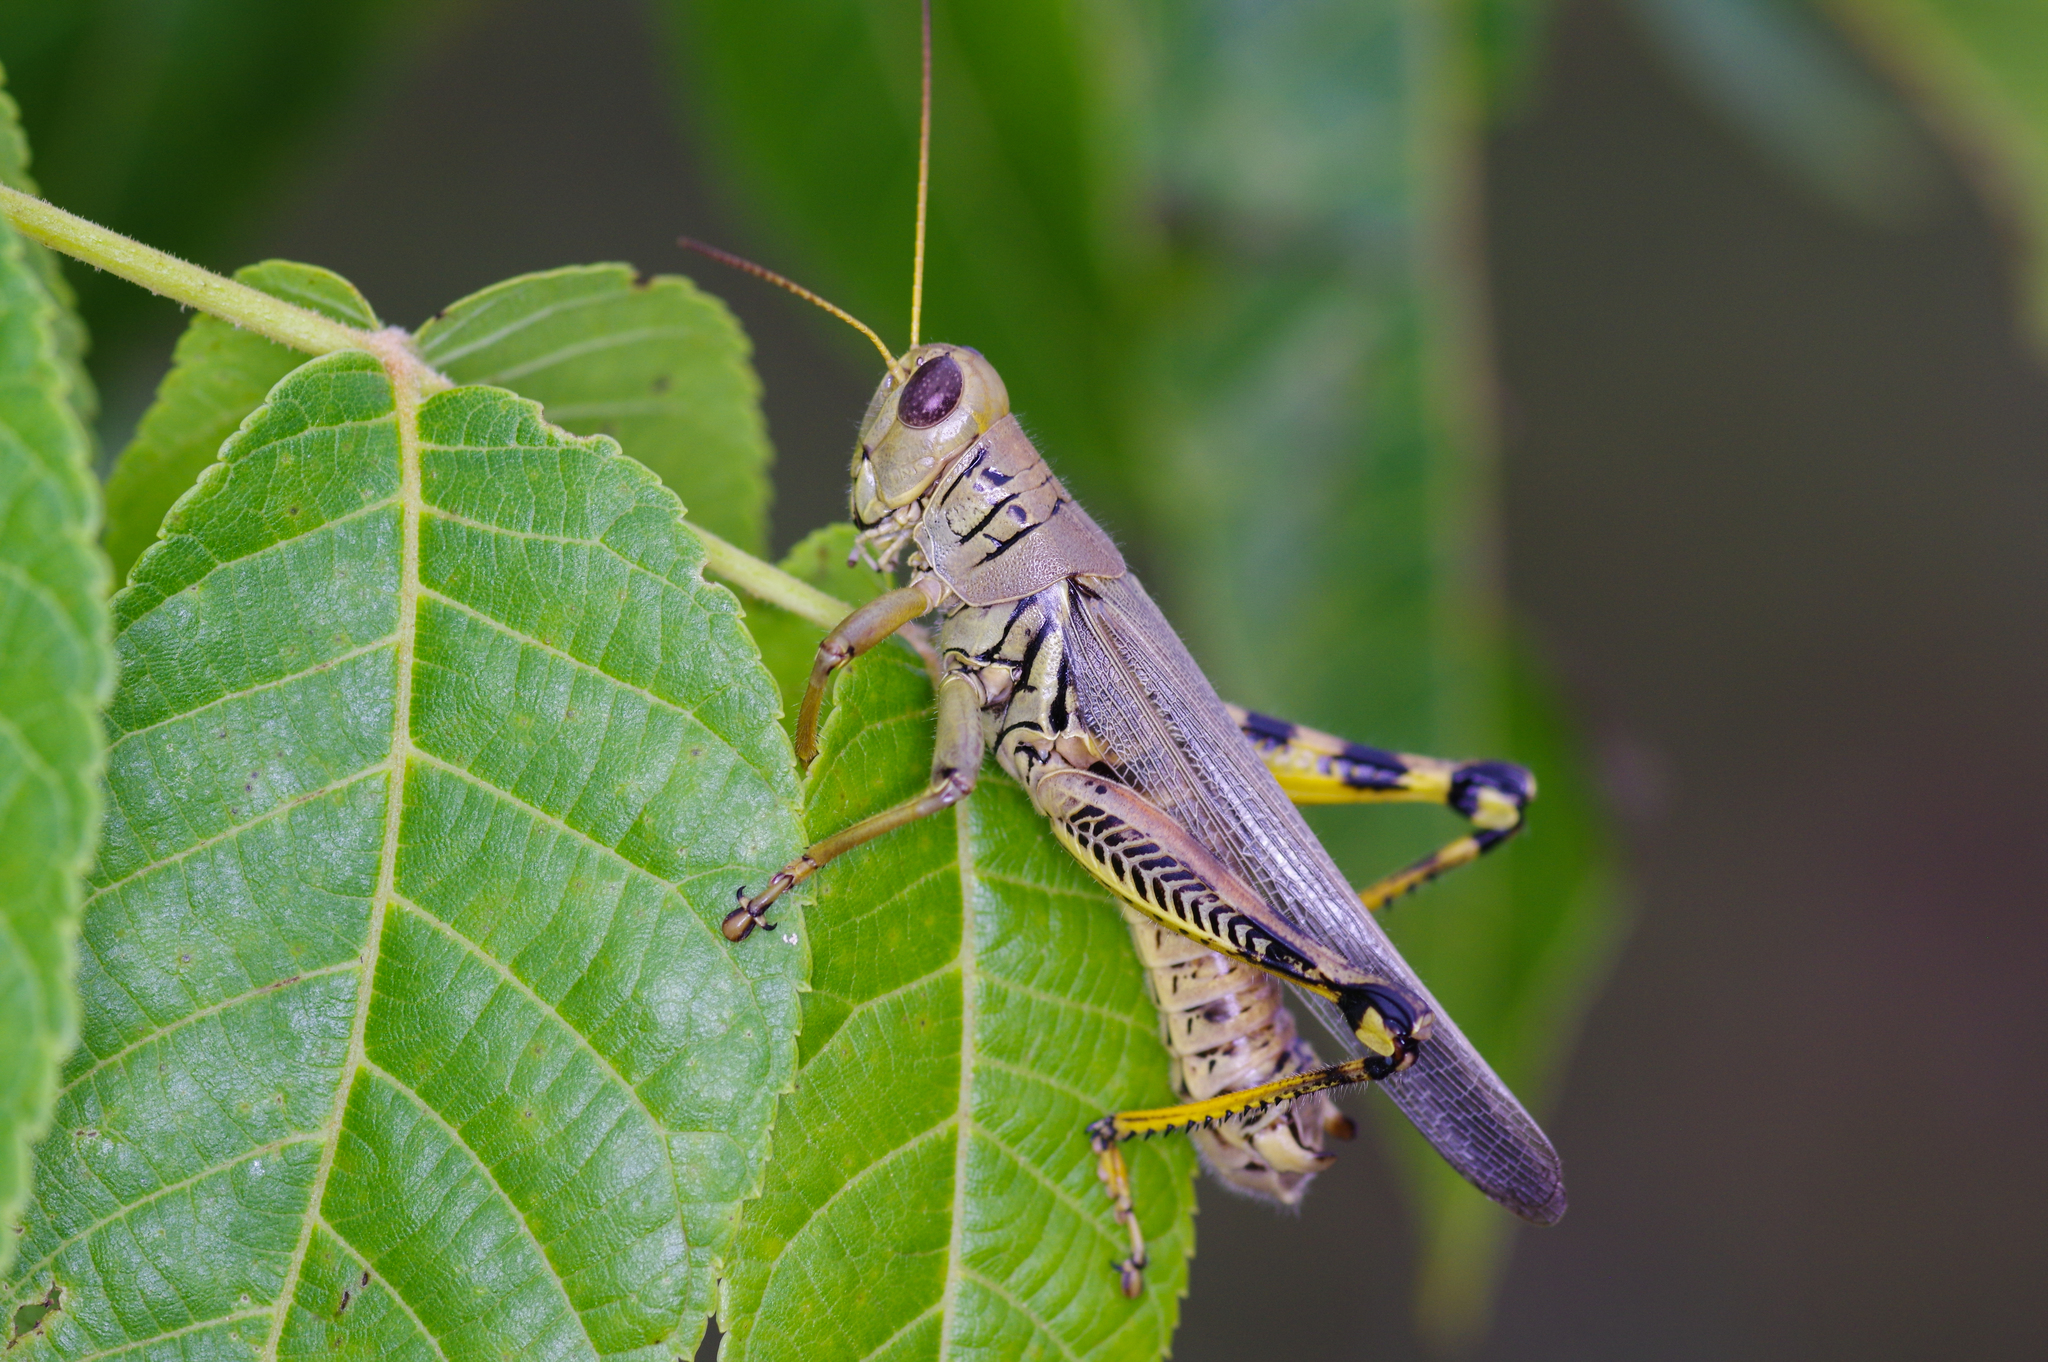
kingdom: Animalia
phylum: Arthropoda
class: Insecta
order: Orthoptera
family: Acrididae
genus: Melanoplus
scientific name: Melanoplus differentialis
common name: Differential grasshopper
